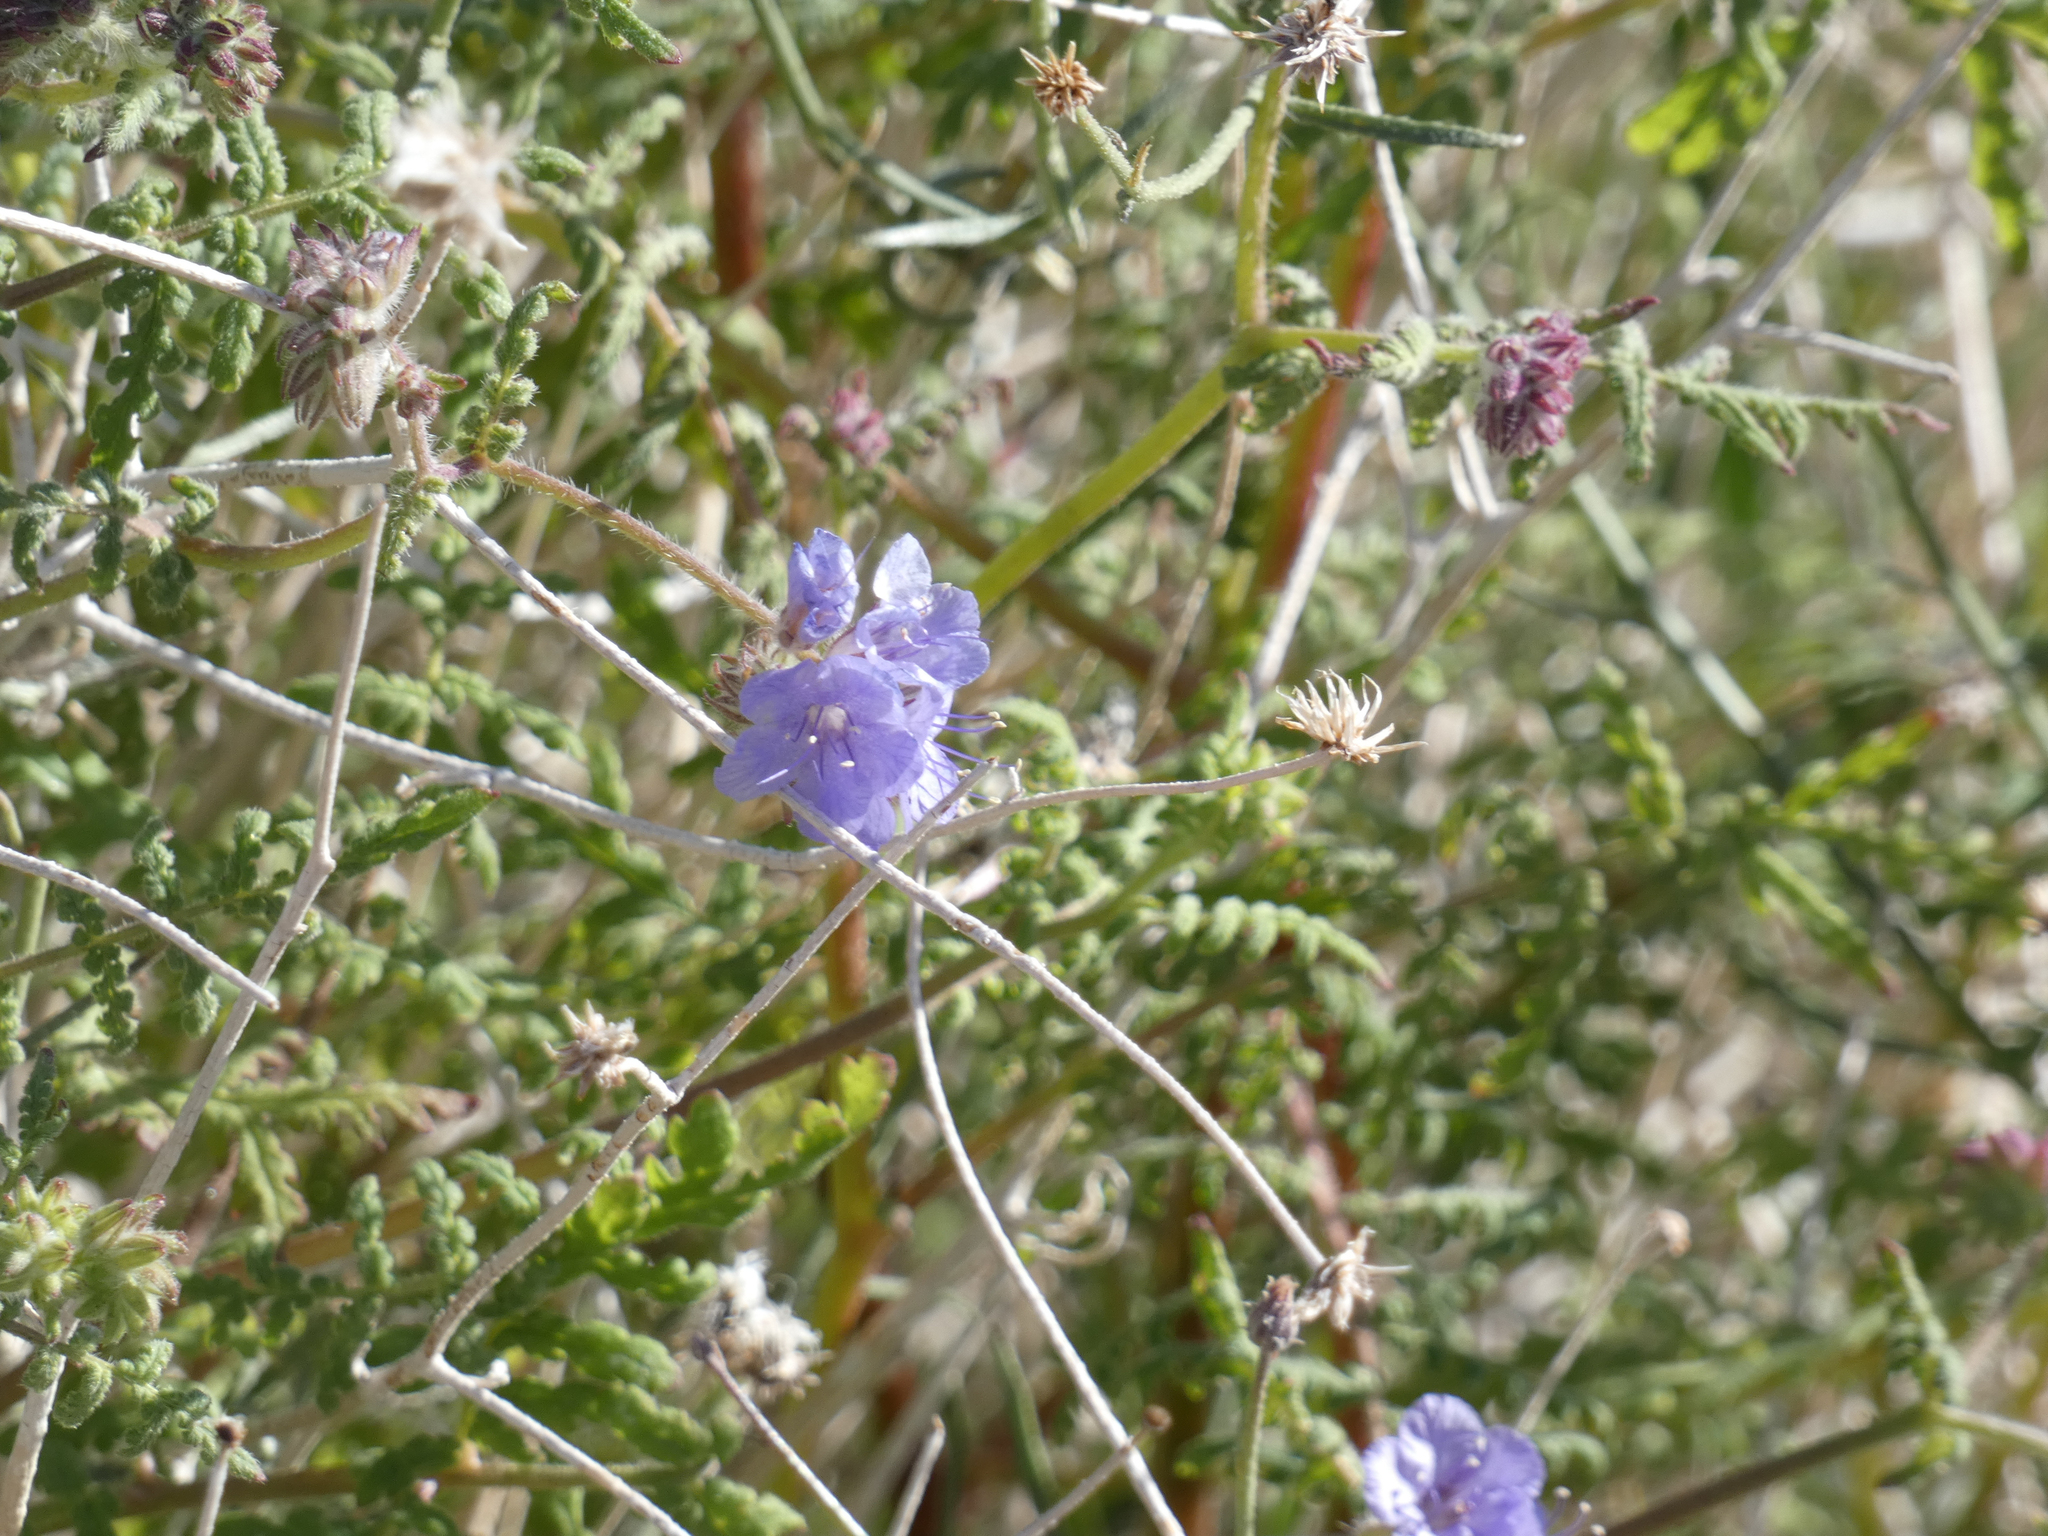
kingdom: Plantae
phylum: Tracheophyta
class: Magnoliopsida
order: Boraginales
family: Hydrophyllaceae
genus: Phacelia
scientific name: Phacelia distans
